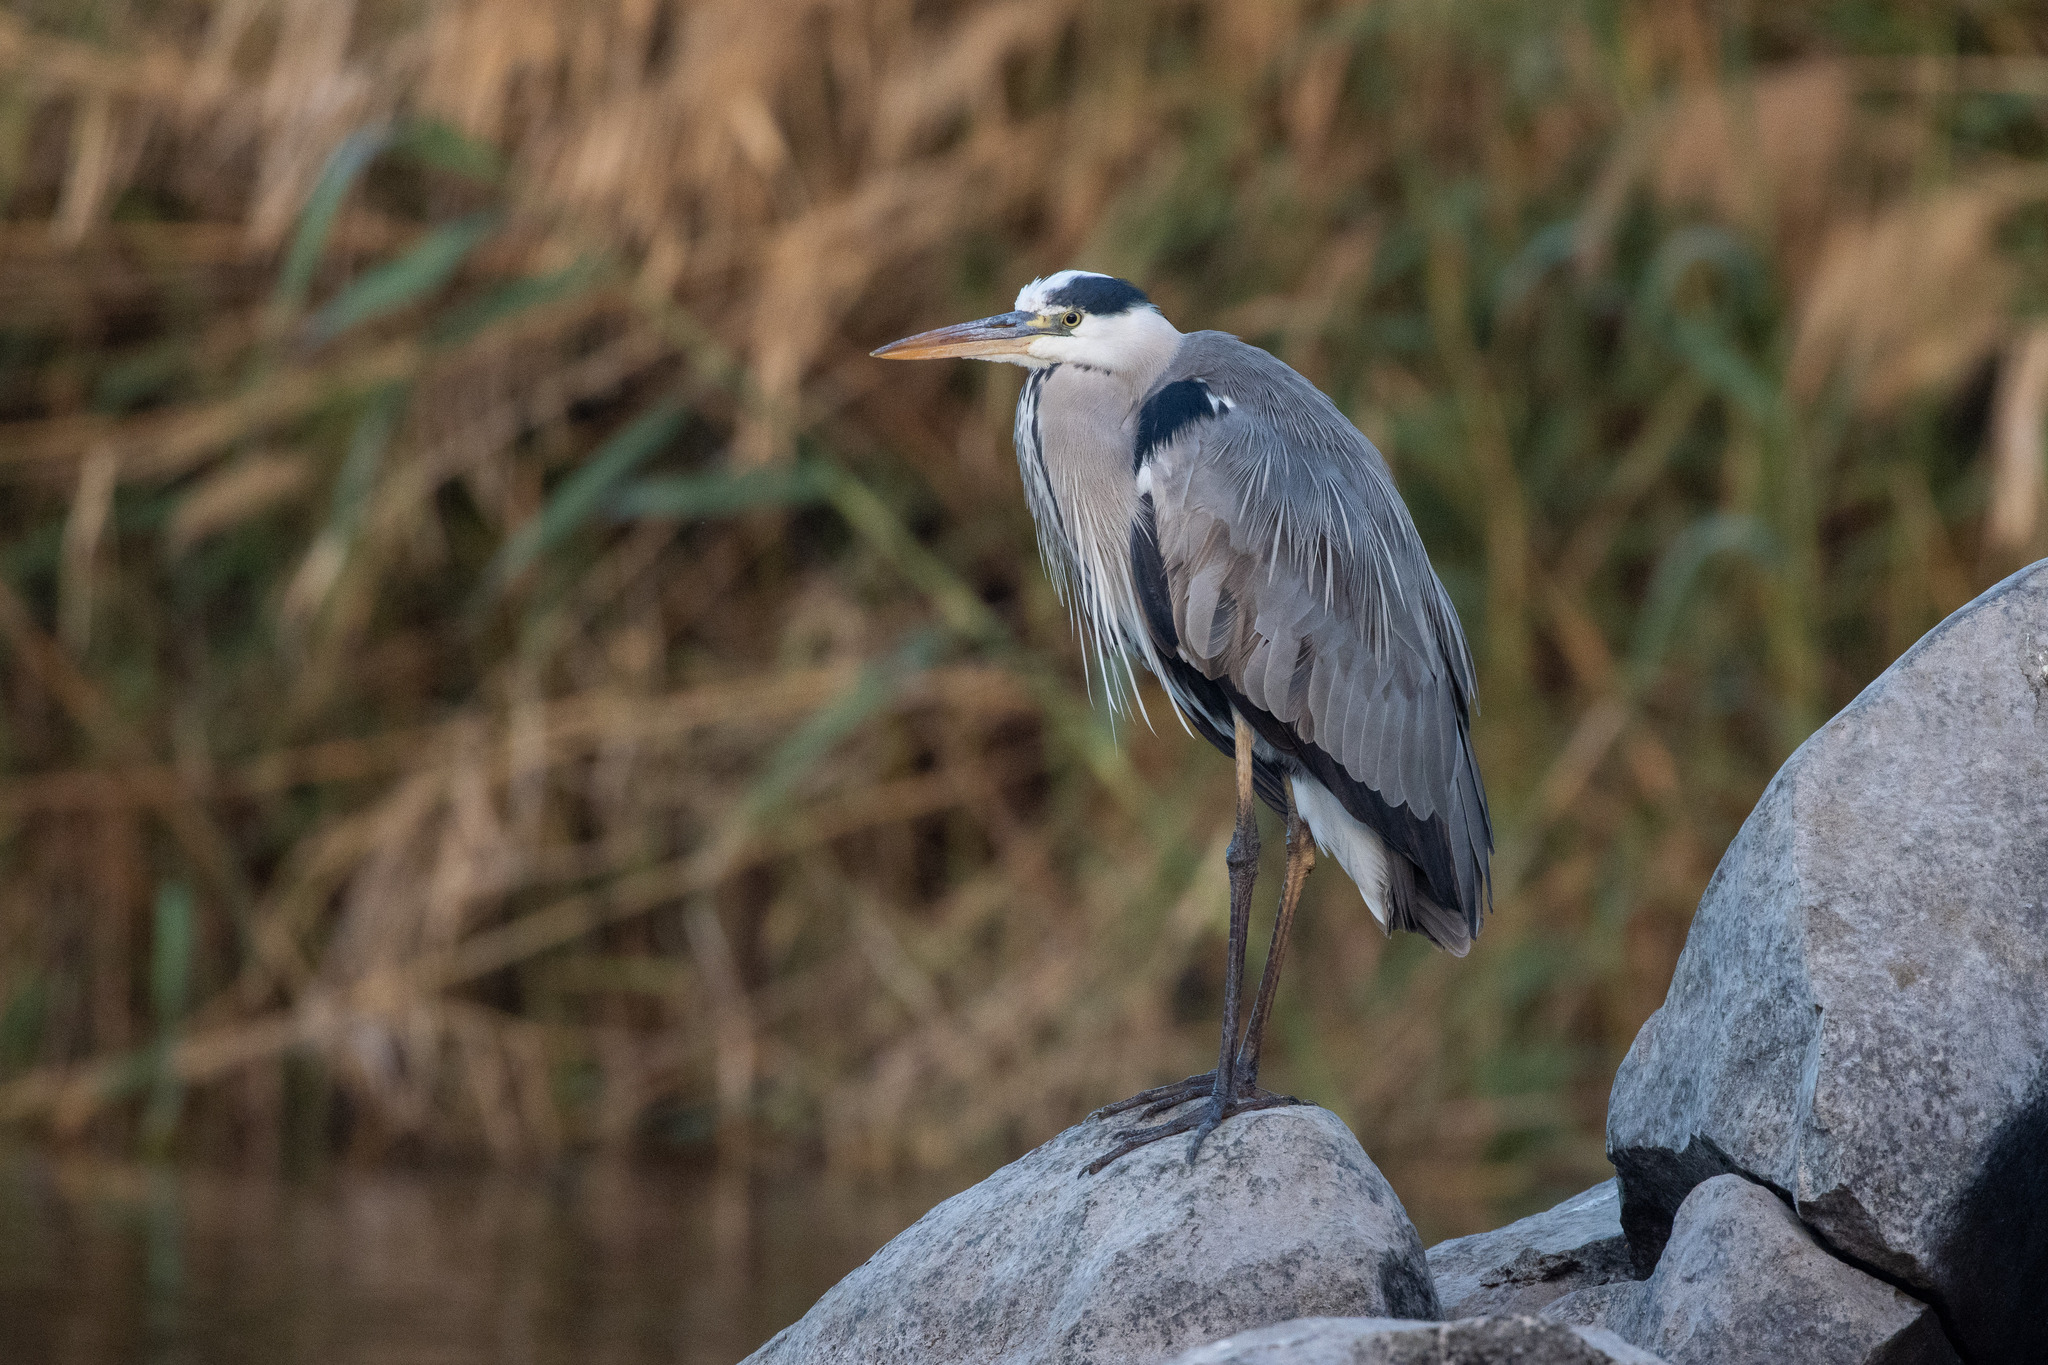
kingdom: Animalia
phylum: Chordata
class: Aves
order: Pelecaniformes
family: Ardeidae
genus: Ardea
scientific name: Ardea cinerea
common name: Grey heron
